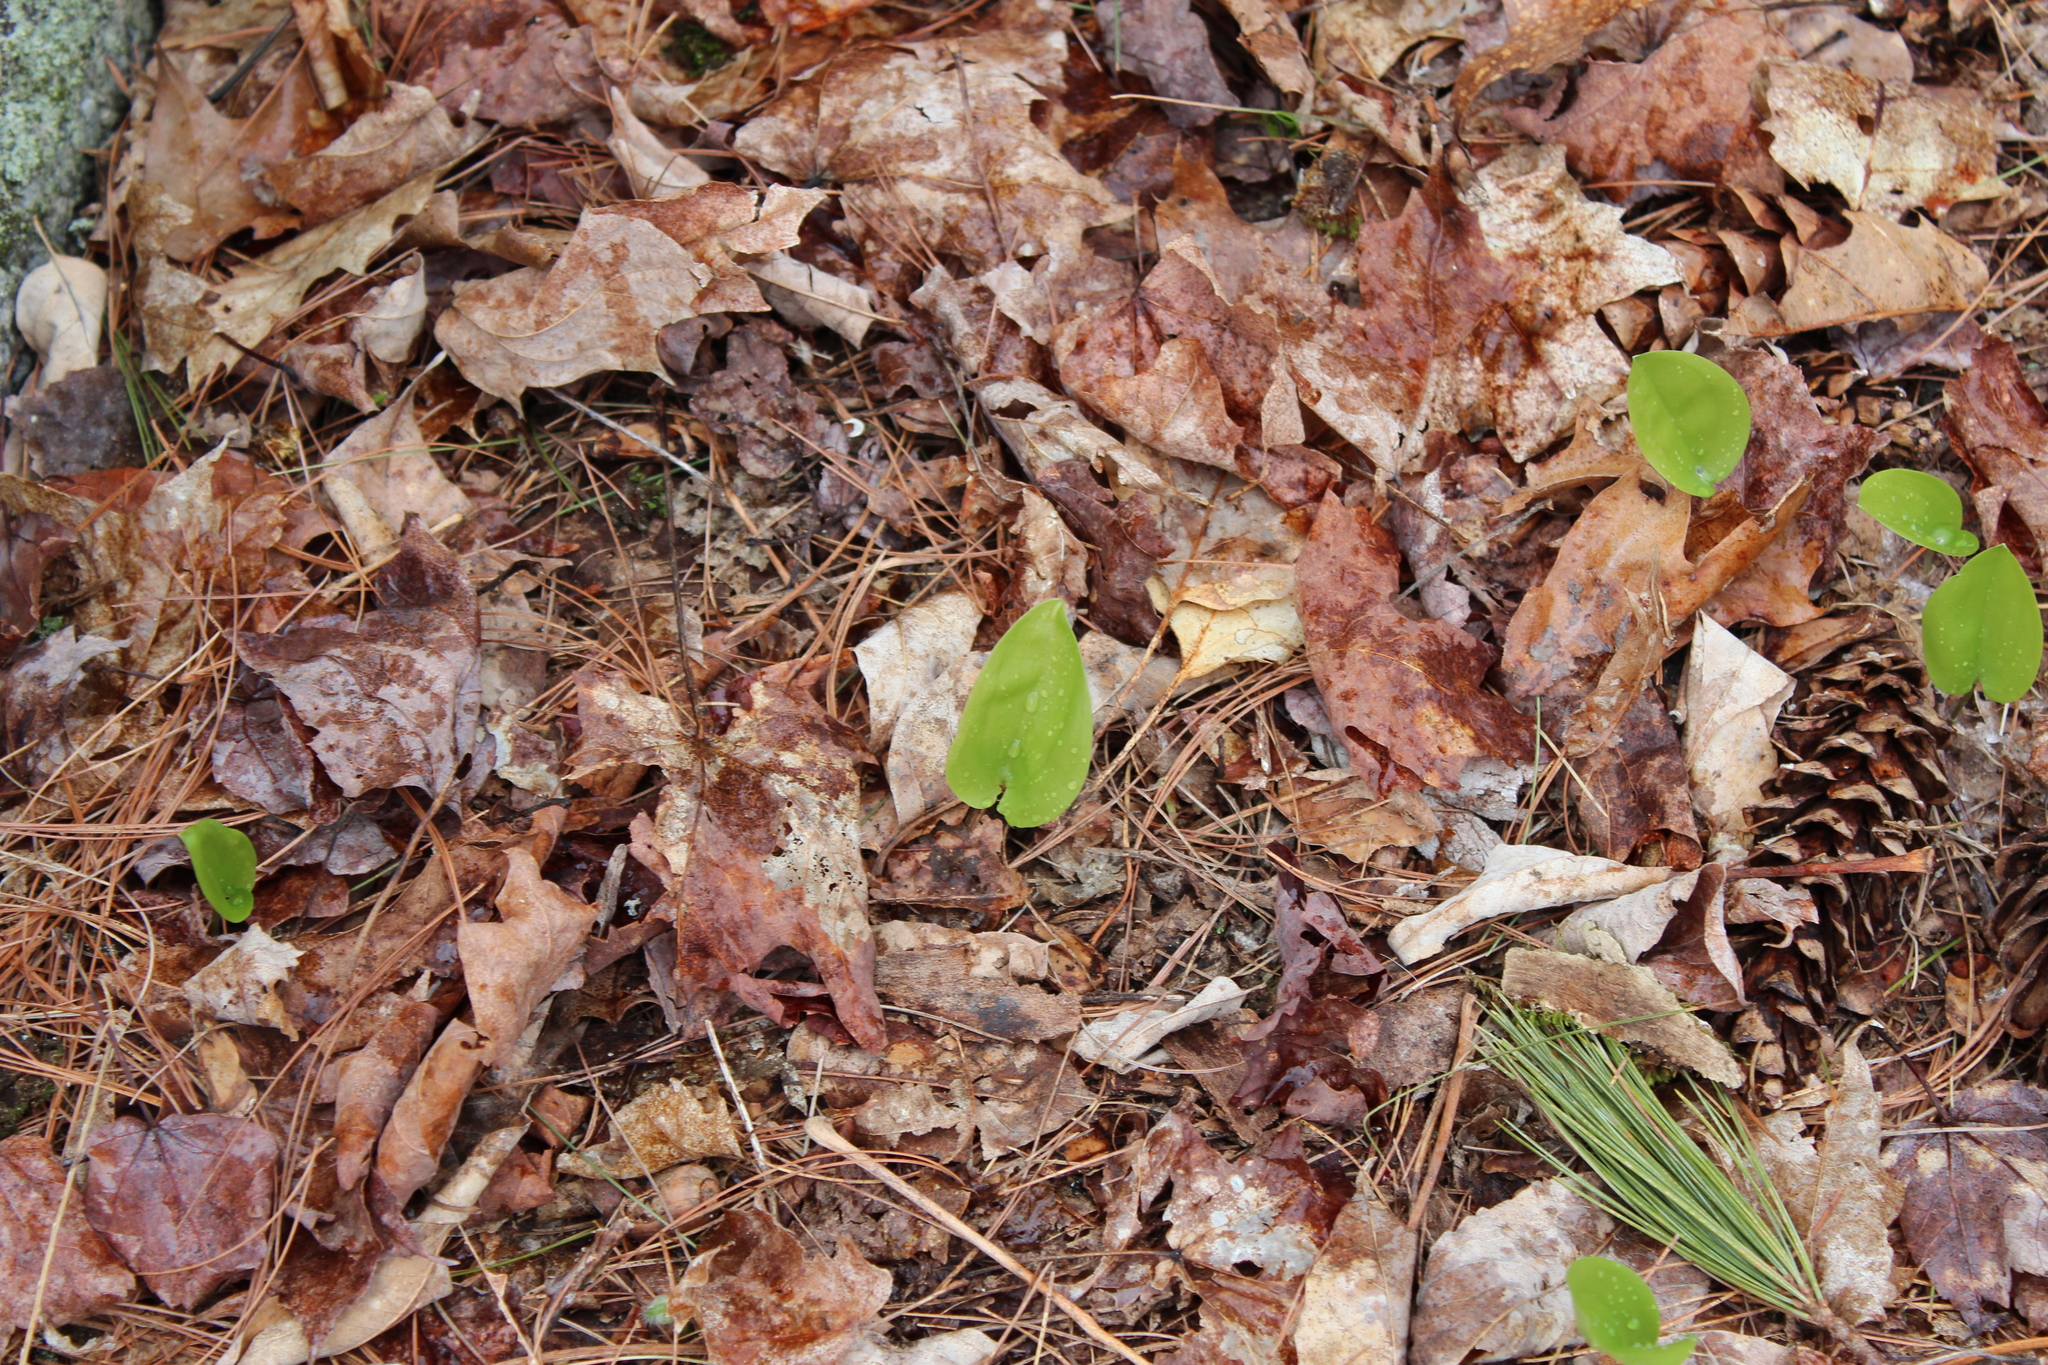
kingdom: Plantae
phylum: Tracheophyta
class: Liliopsida
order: Asparagales
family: Asparagaceae
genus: Maianthemum
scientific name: Maianthemum canadense
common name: False lily-of-the-valley
